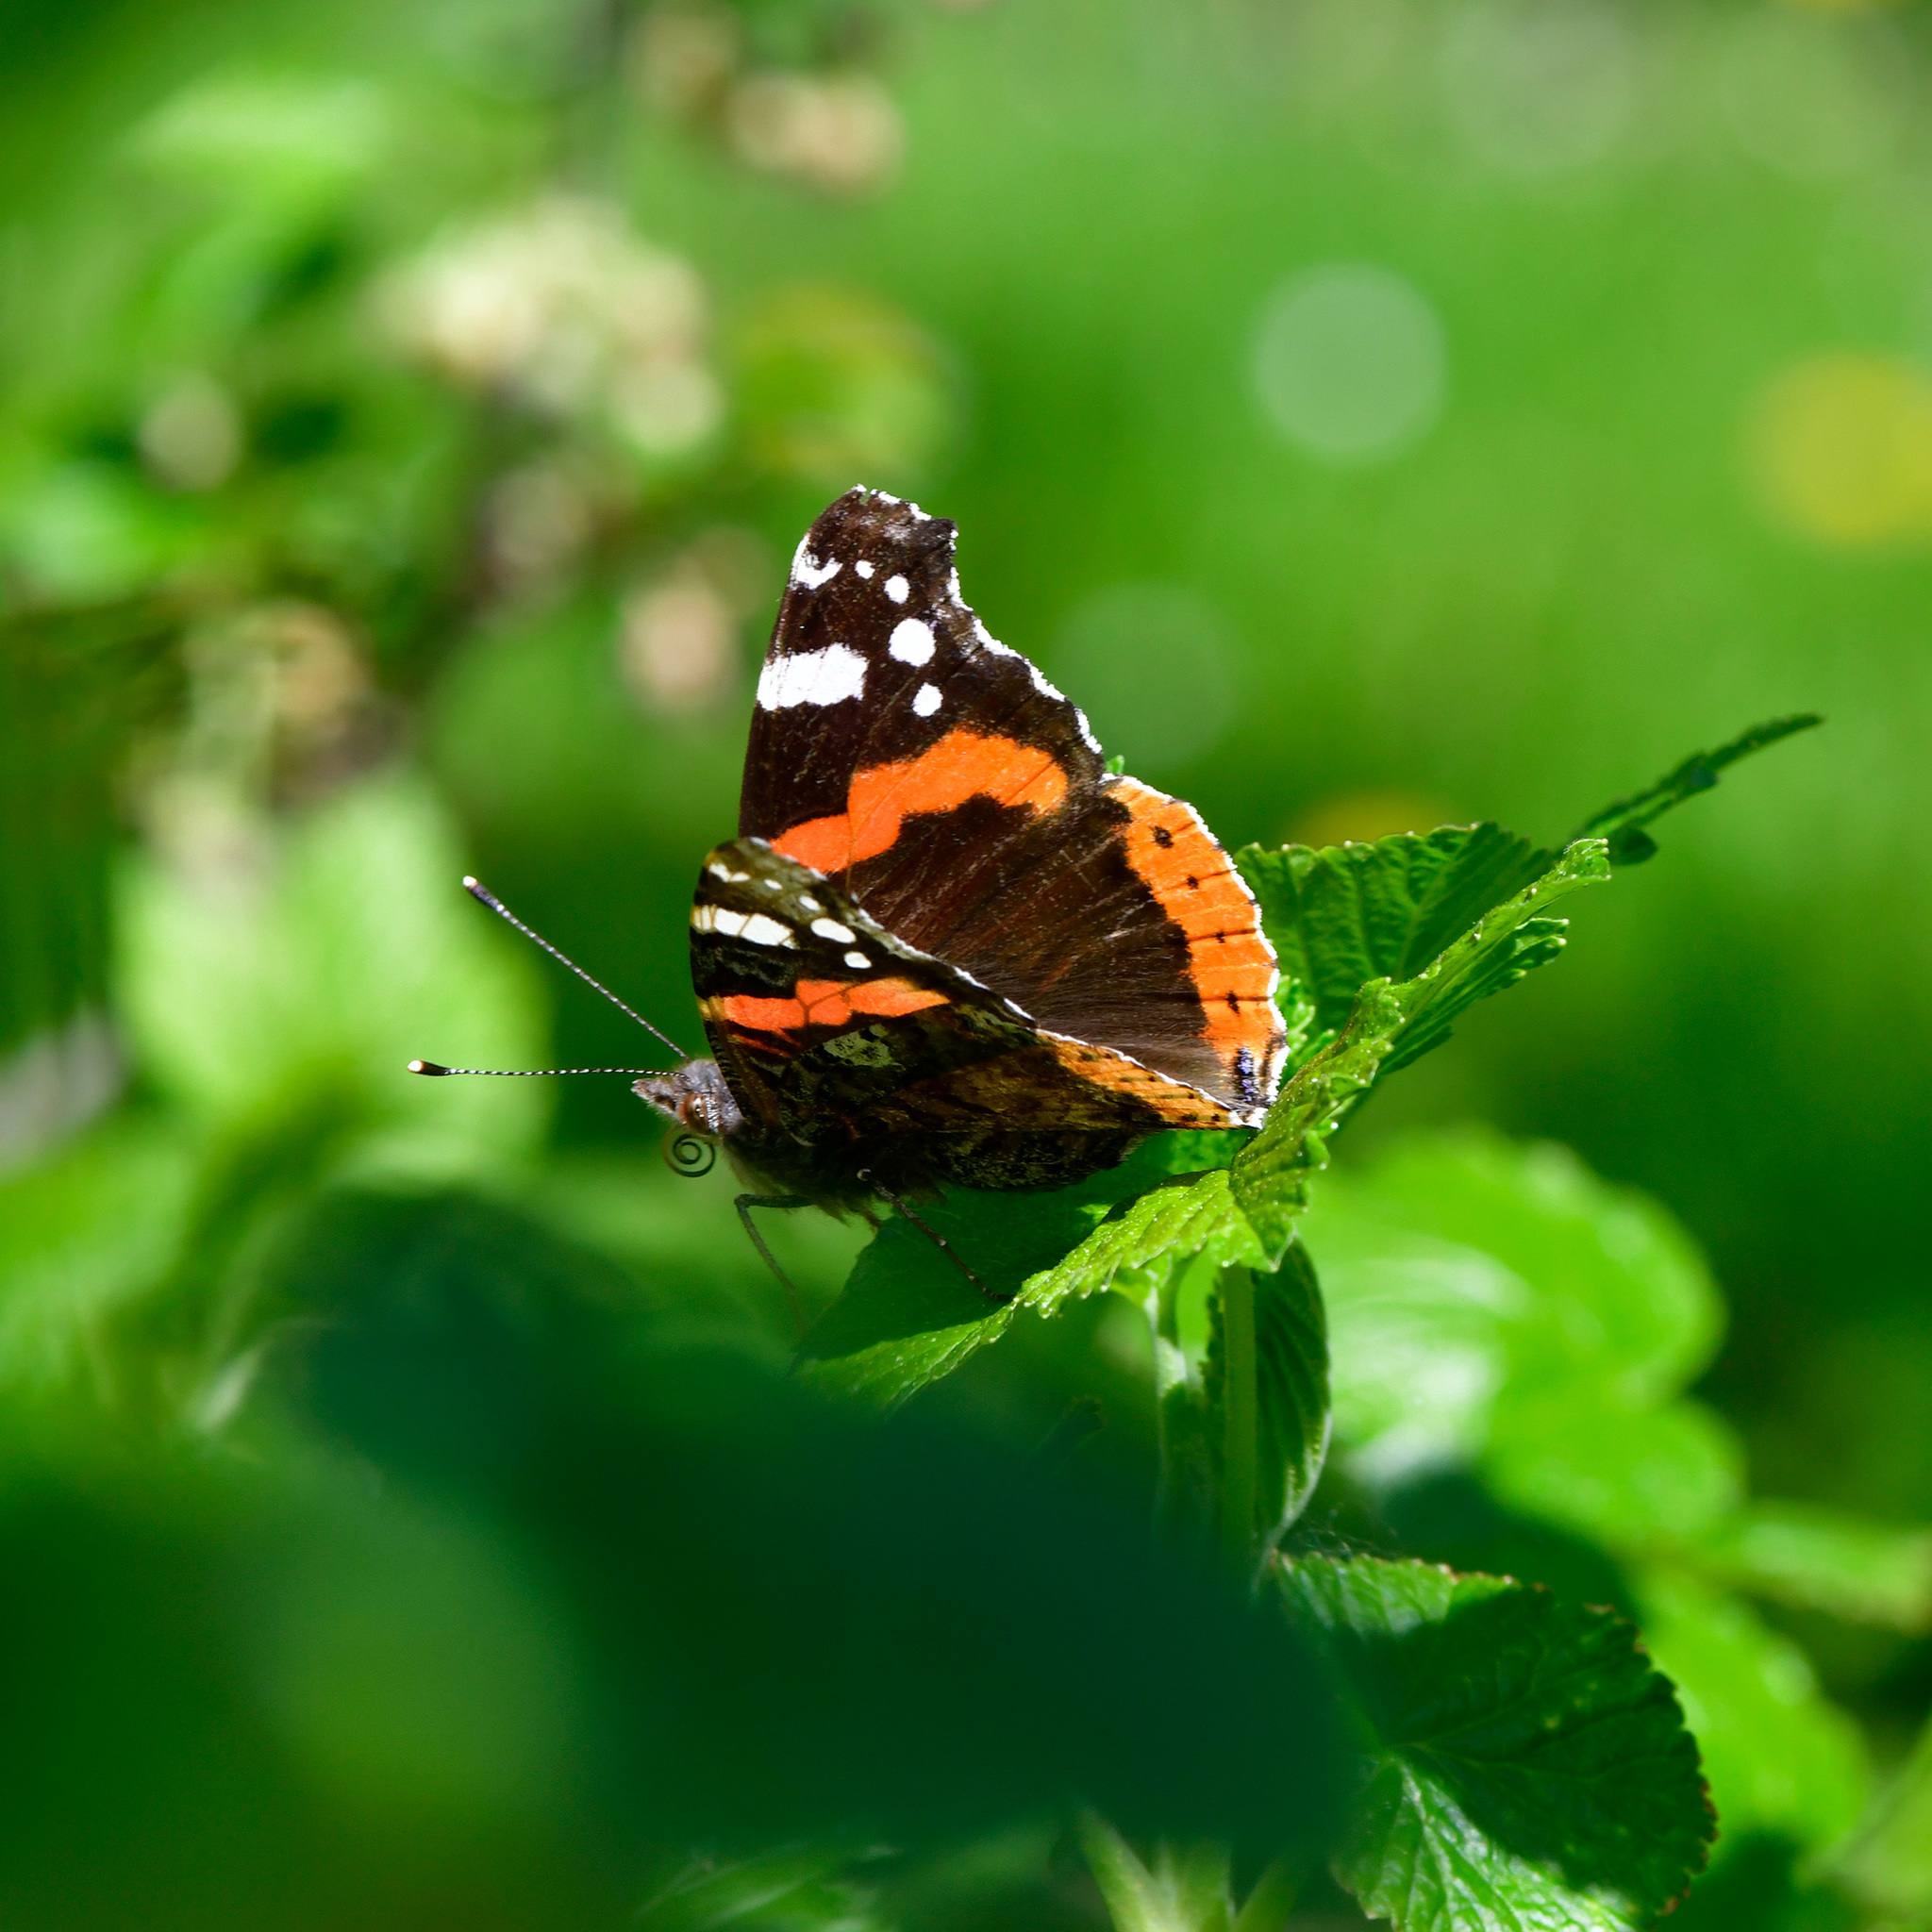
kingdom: Animalia
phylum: Arthropoda
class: Insecta
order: Lepidoptera
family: Nymphalidae
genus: Vanessa
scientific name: Vanessa atalanta
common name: Red admiral
